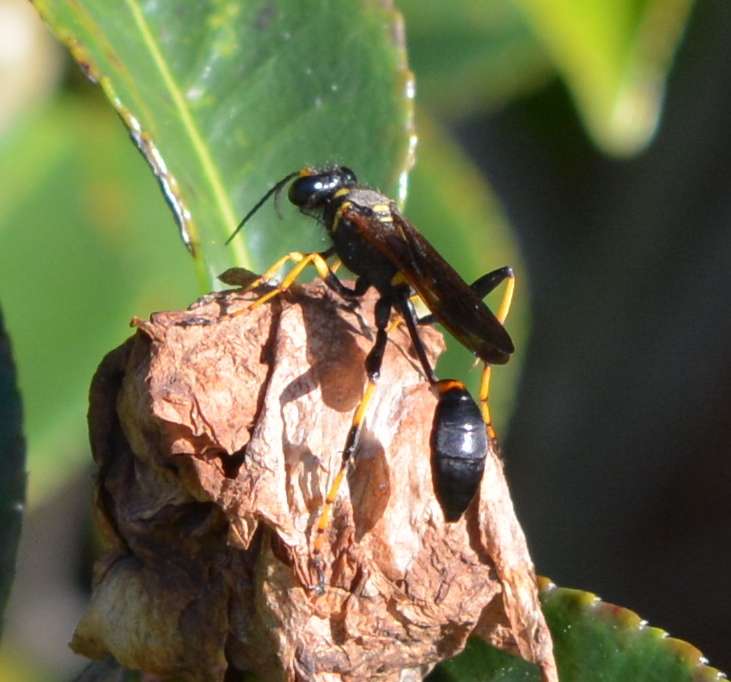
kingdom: Animalia
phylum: Arthropoda
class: Insecta
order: Hymenoptera
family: Sphecidae
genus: Sceliphron
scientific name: Sceliphron caementarium
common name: Mud dauber
